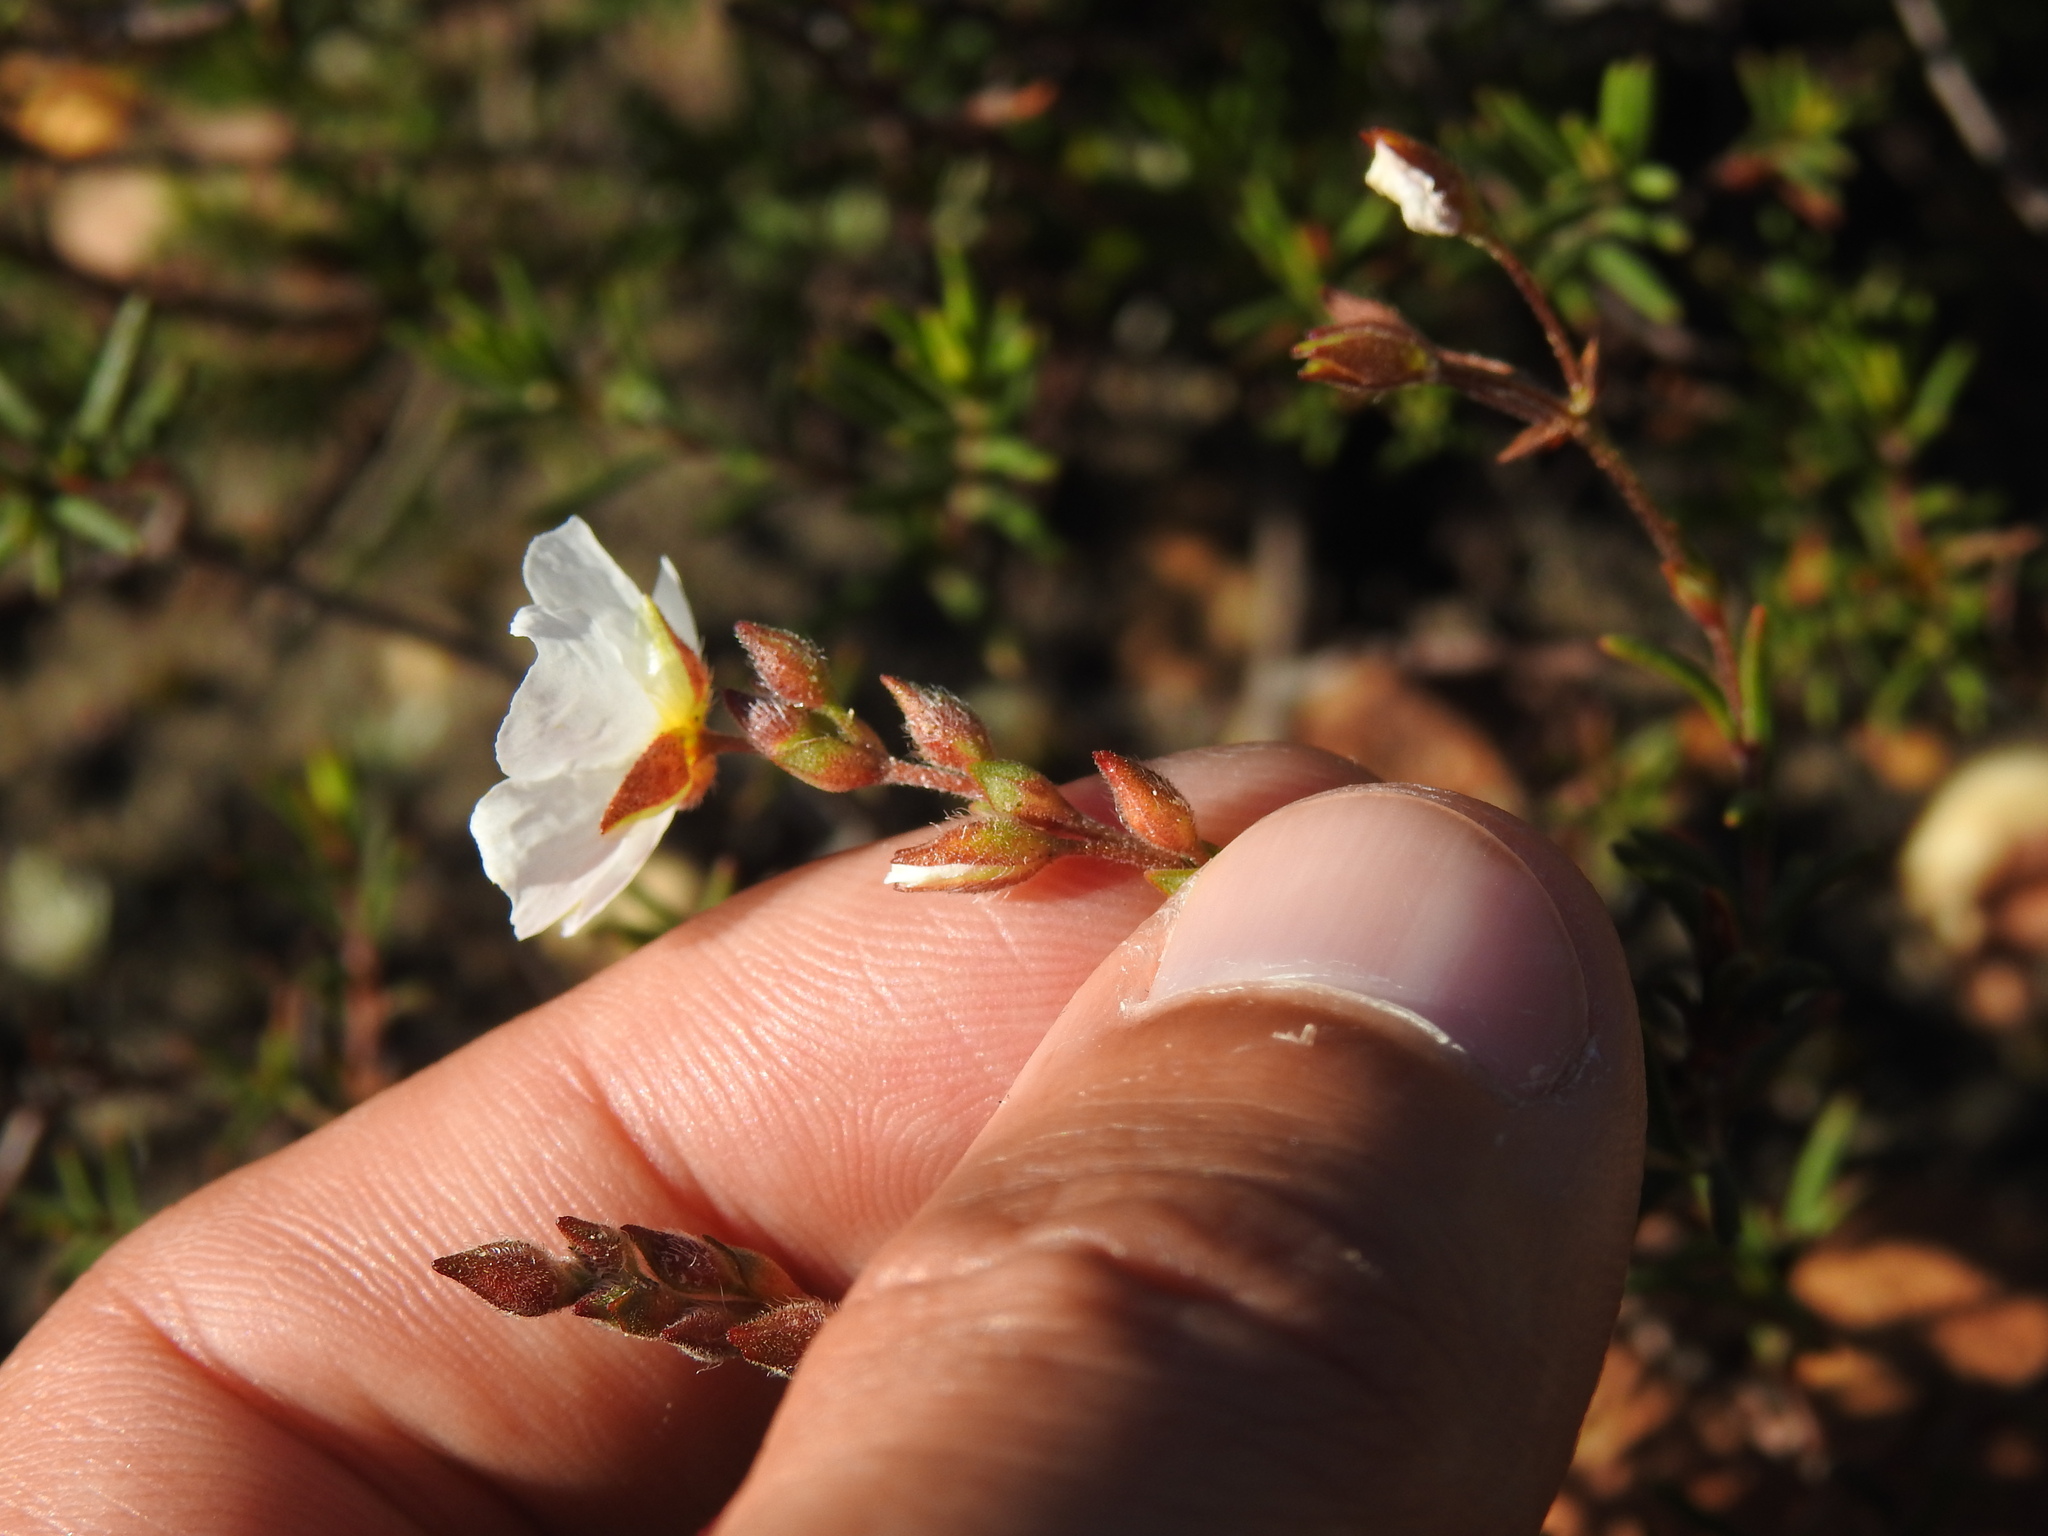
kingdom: Plantae
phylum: Tracheophyta
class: Magnoliopsida
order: Malvales
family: Cistaceae
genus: Halimium
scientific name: Halimium umbellatum
